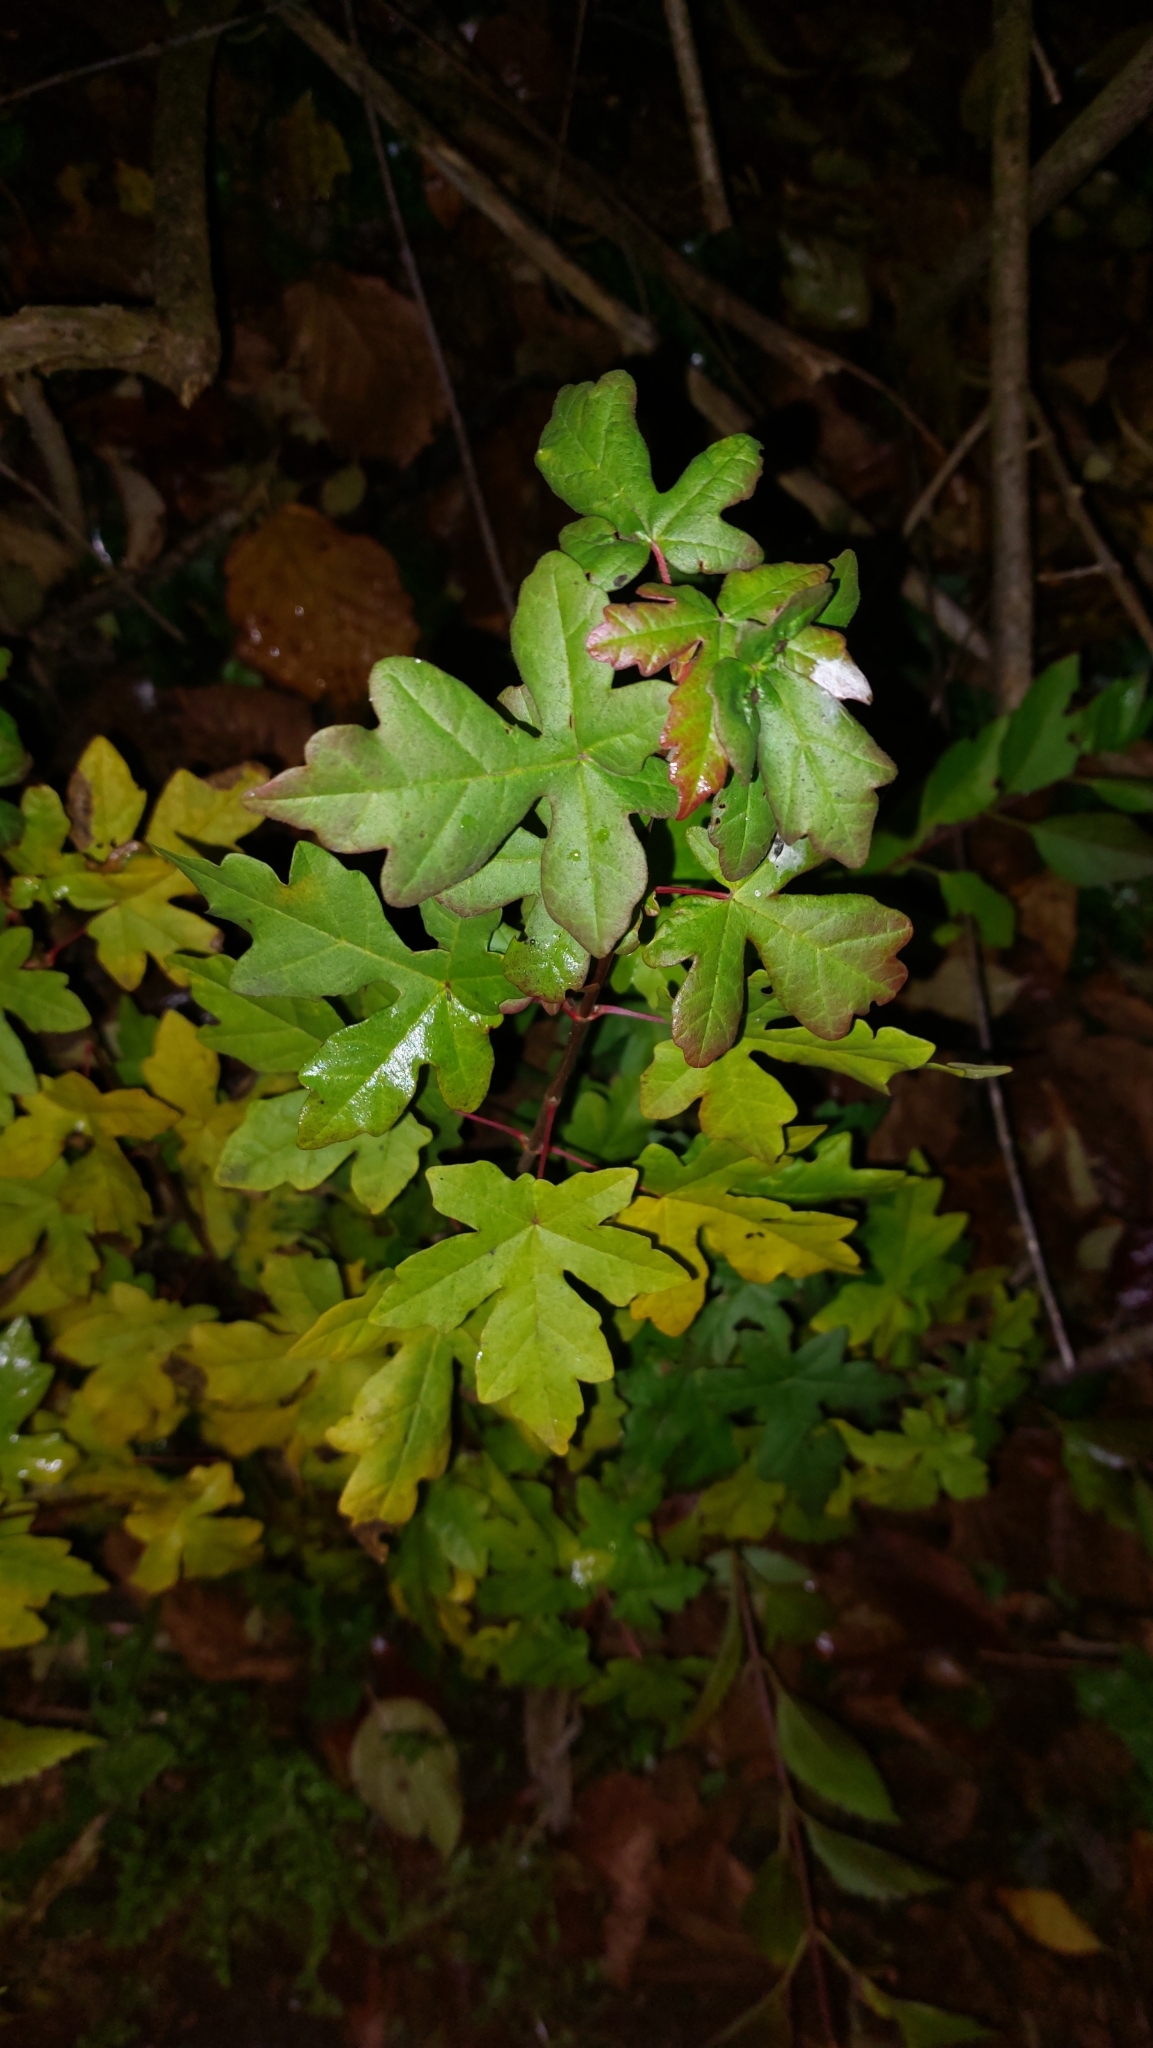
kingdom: Plantae
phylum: Tracheophyta
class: Magnoliopsida
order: Sapindales
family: Sapindaceae
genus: Acer
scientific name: Acer campestre
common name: Field maple
